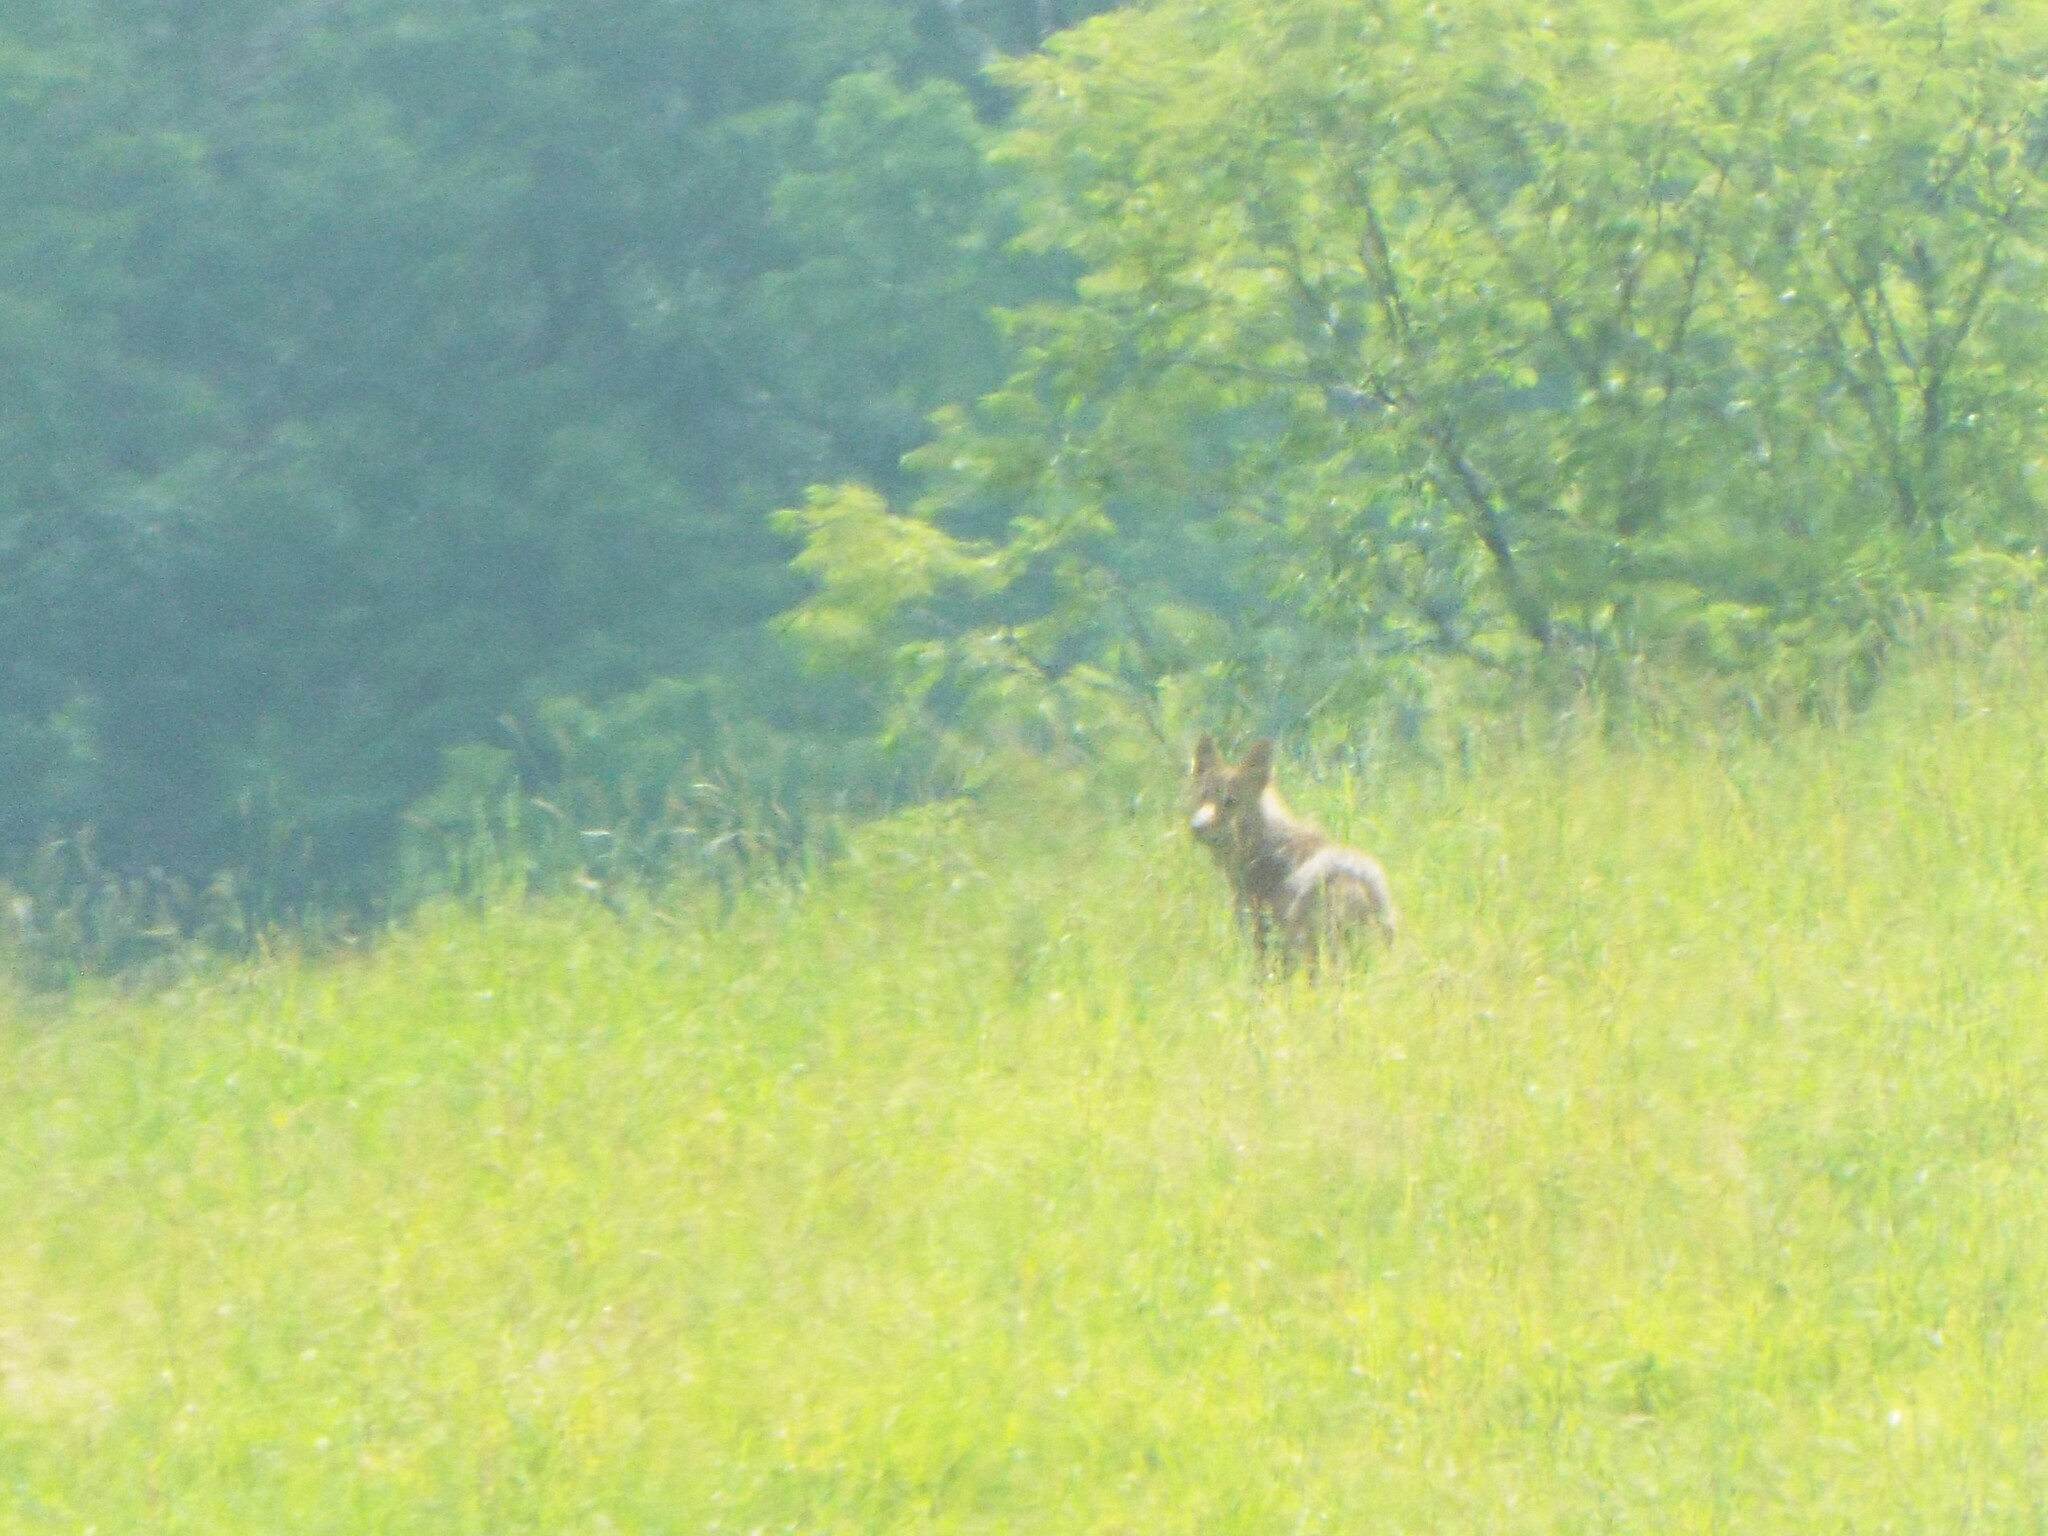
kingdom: Animalia
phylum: Chordata
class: Mammalia
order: Carnivora
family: Canidae
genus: Canis
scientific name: Canis latrans
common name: Coyote
